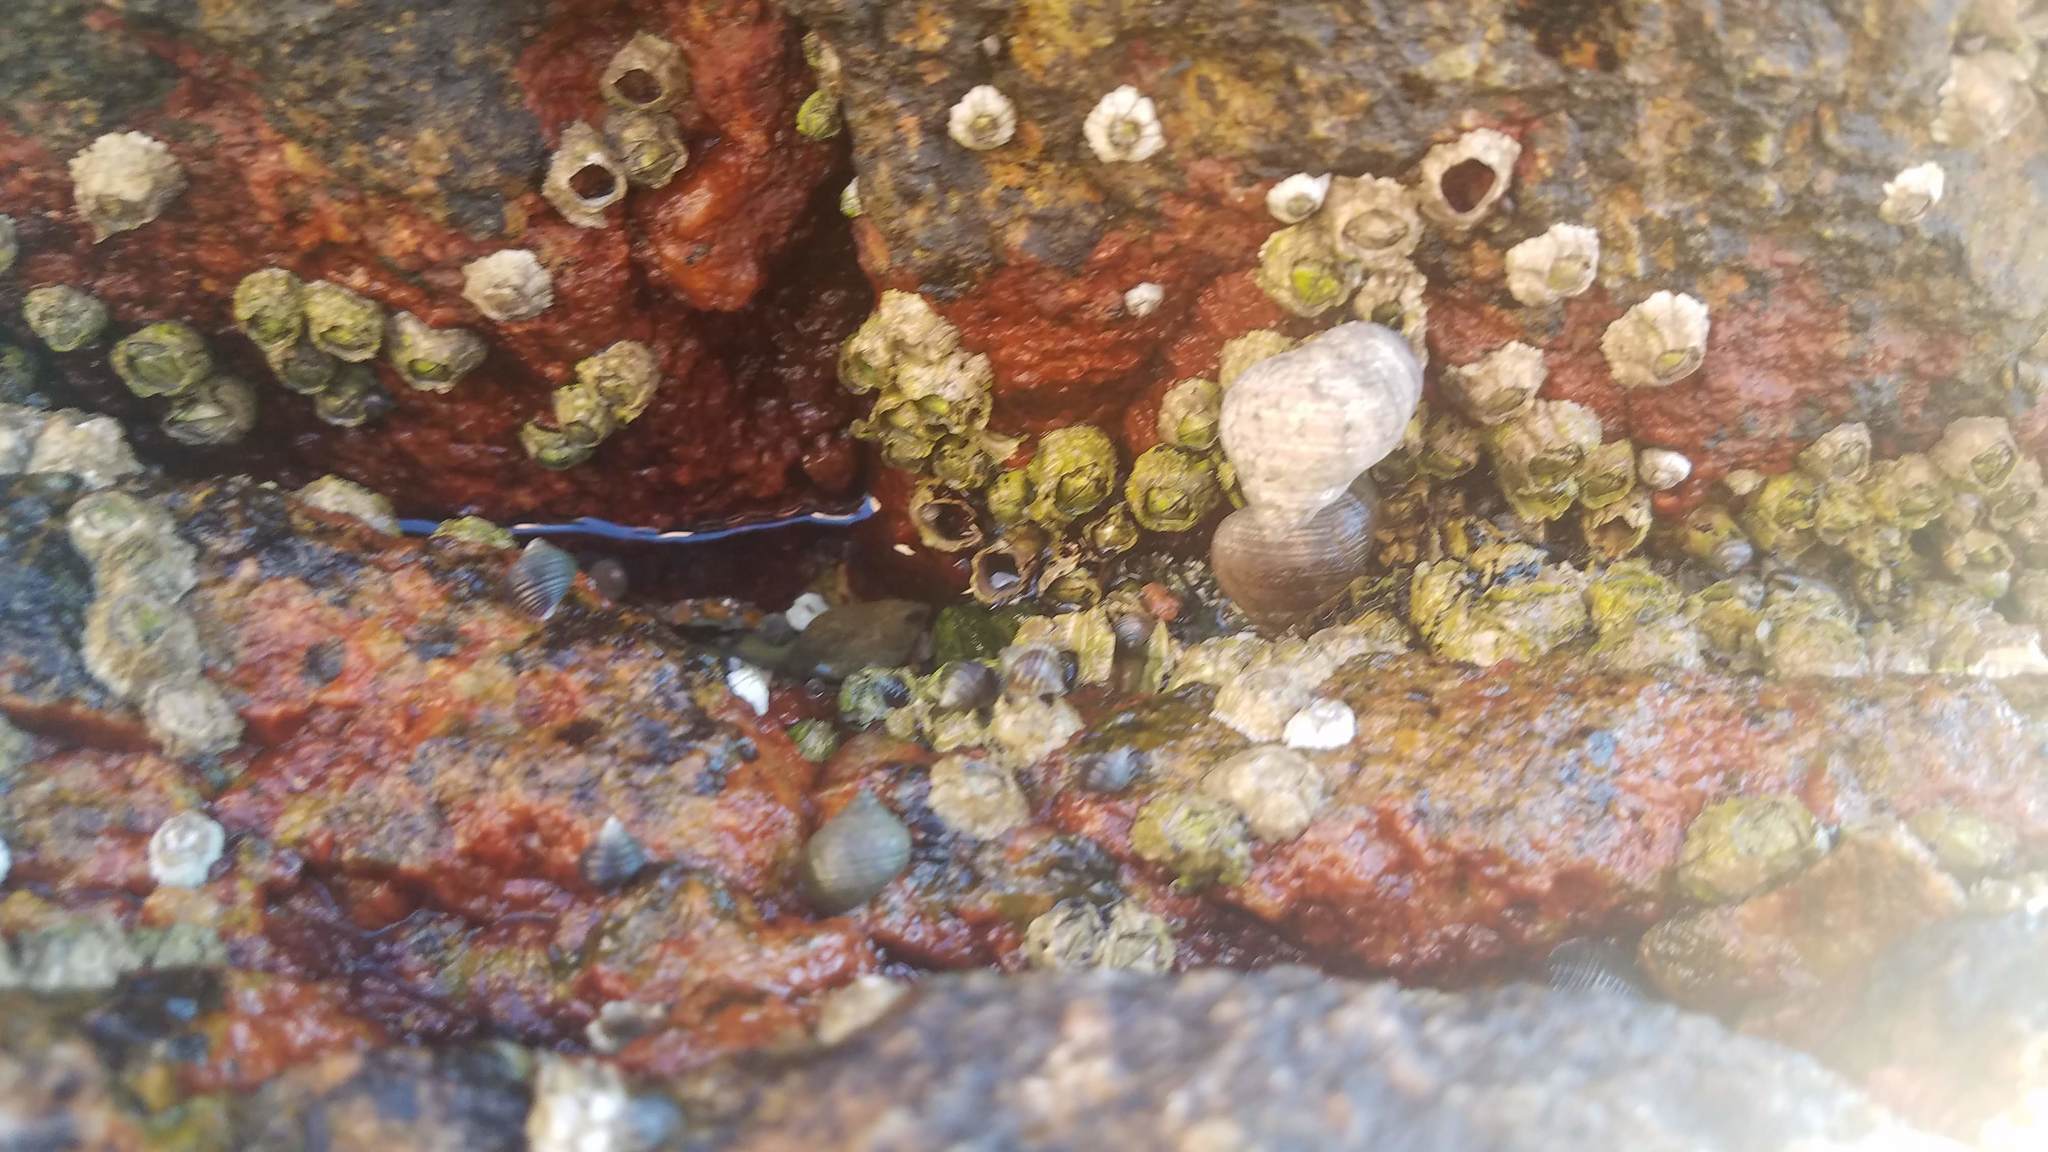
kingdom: Animalia
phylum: Arthropoda
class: Maxillopoda
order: Sessilia
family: Archaeobalanidae
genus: Semibalanus
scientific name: Semibalanus balanoides
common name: Acorn barnacle
